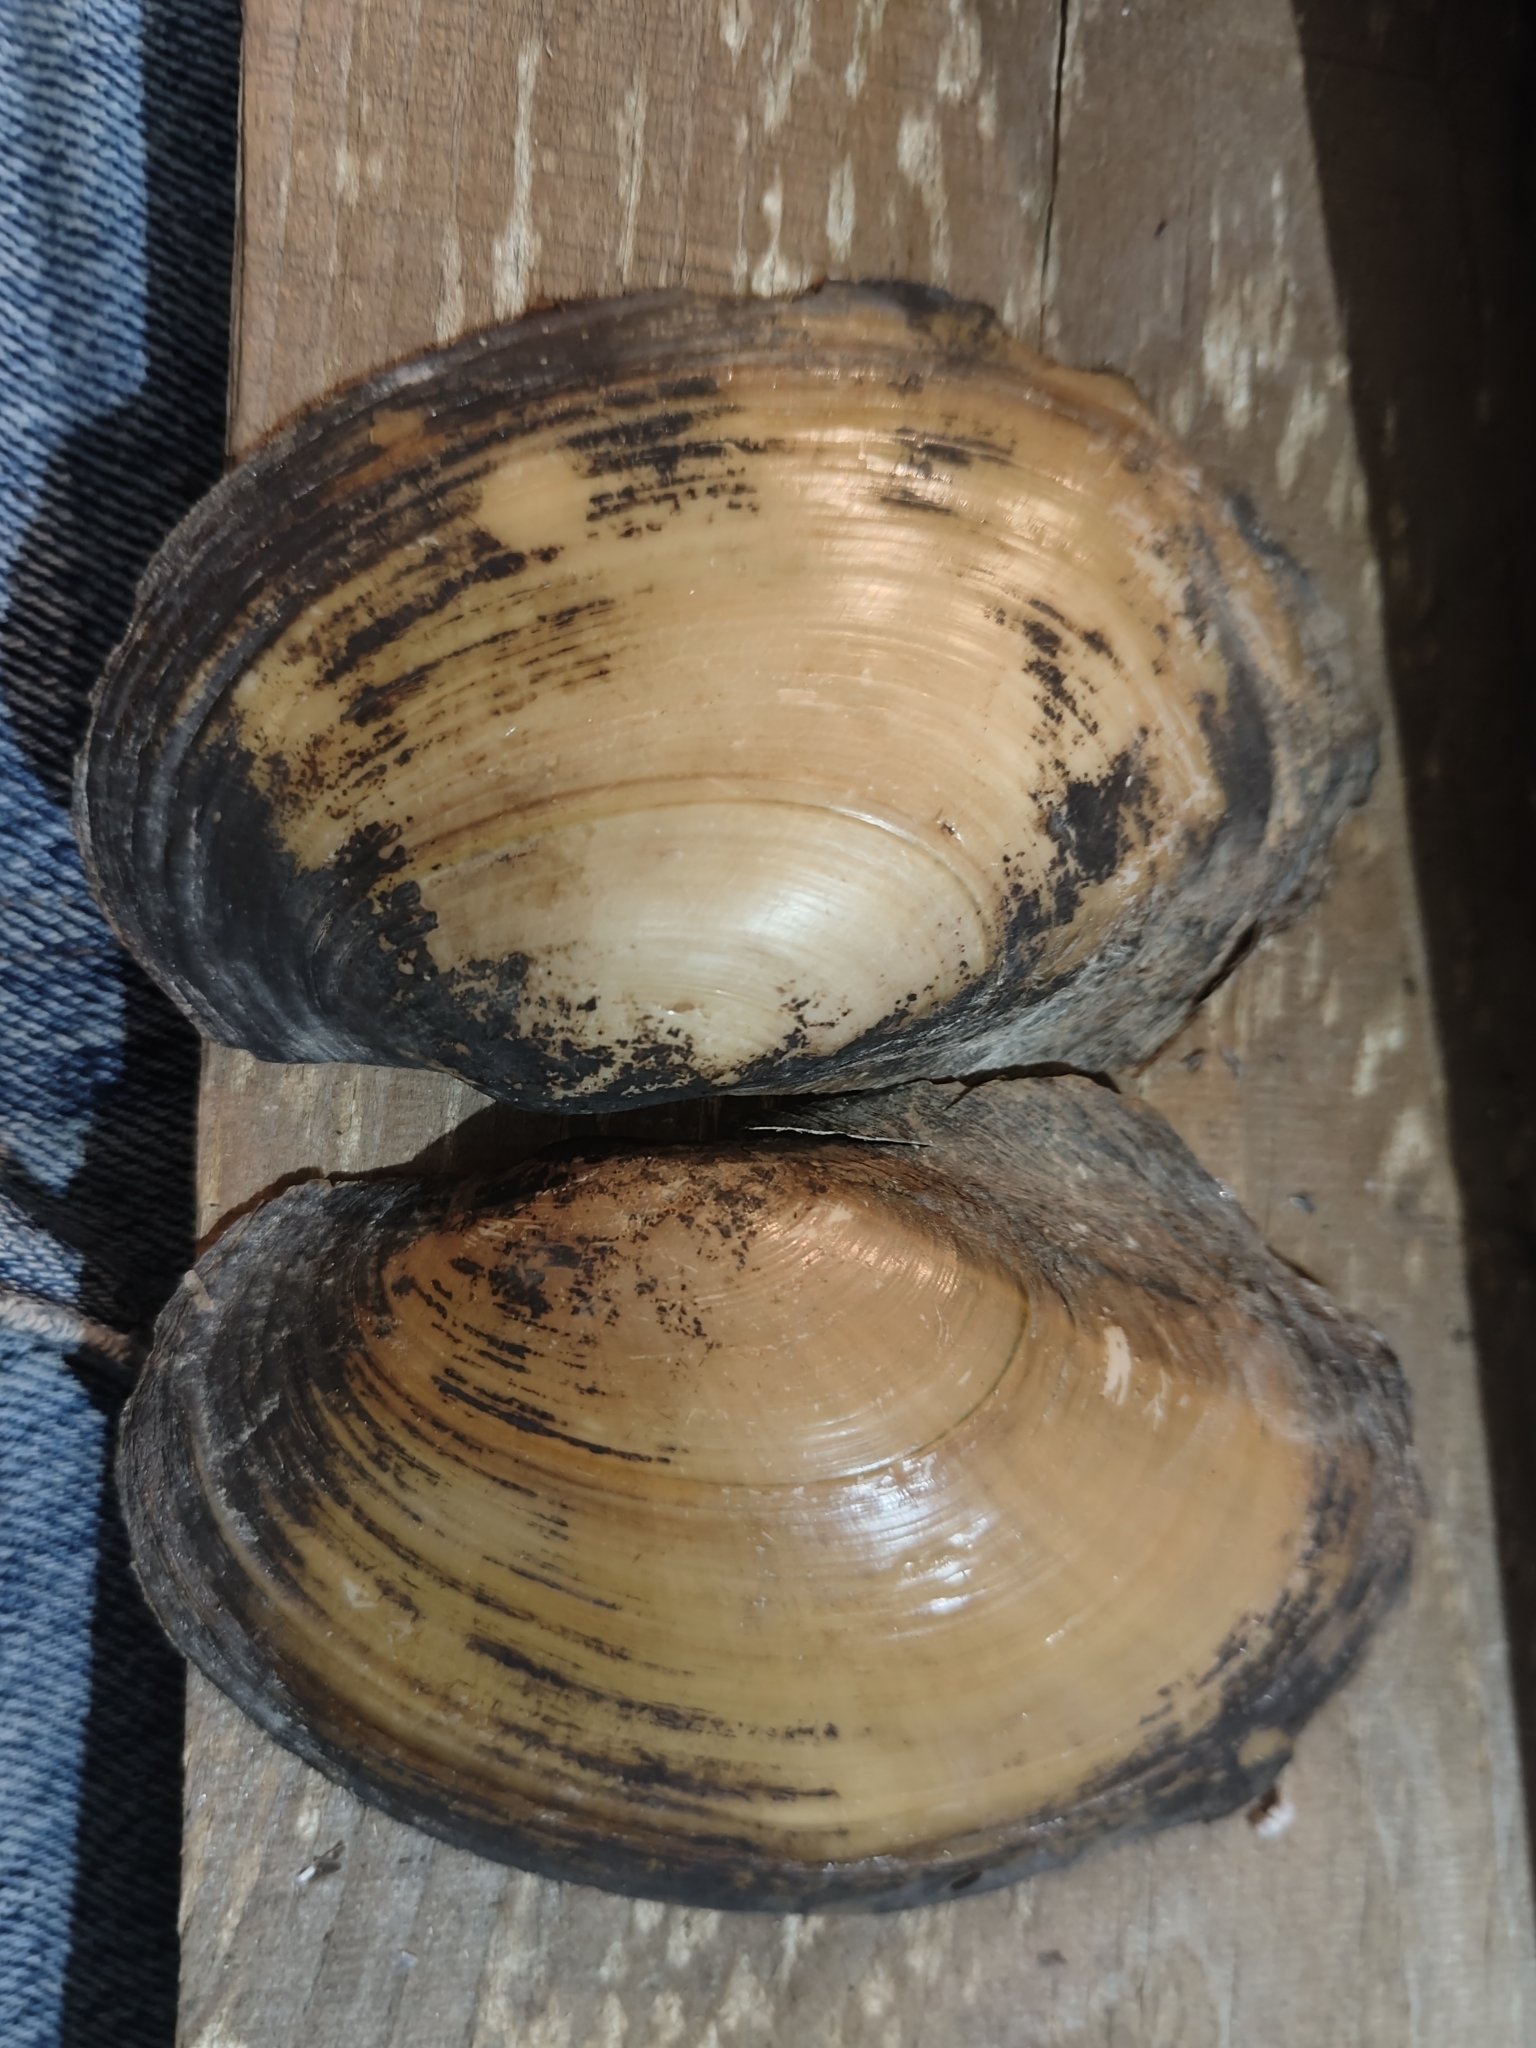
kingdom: Animalia
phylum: Mollusca
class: Bivalvia
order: Unionida
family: Unionidae
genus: Potamilus
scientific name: Potamilus fragilis
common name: Fragile papershell
